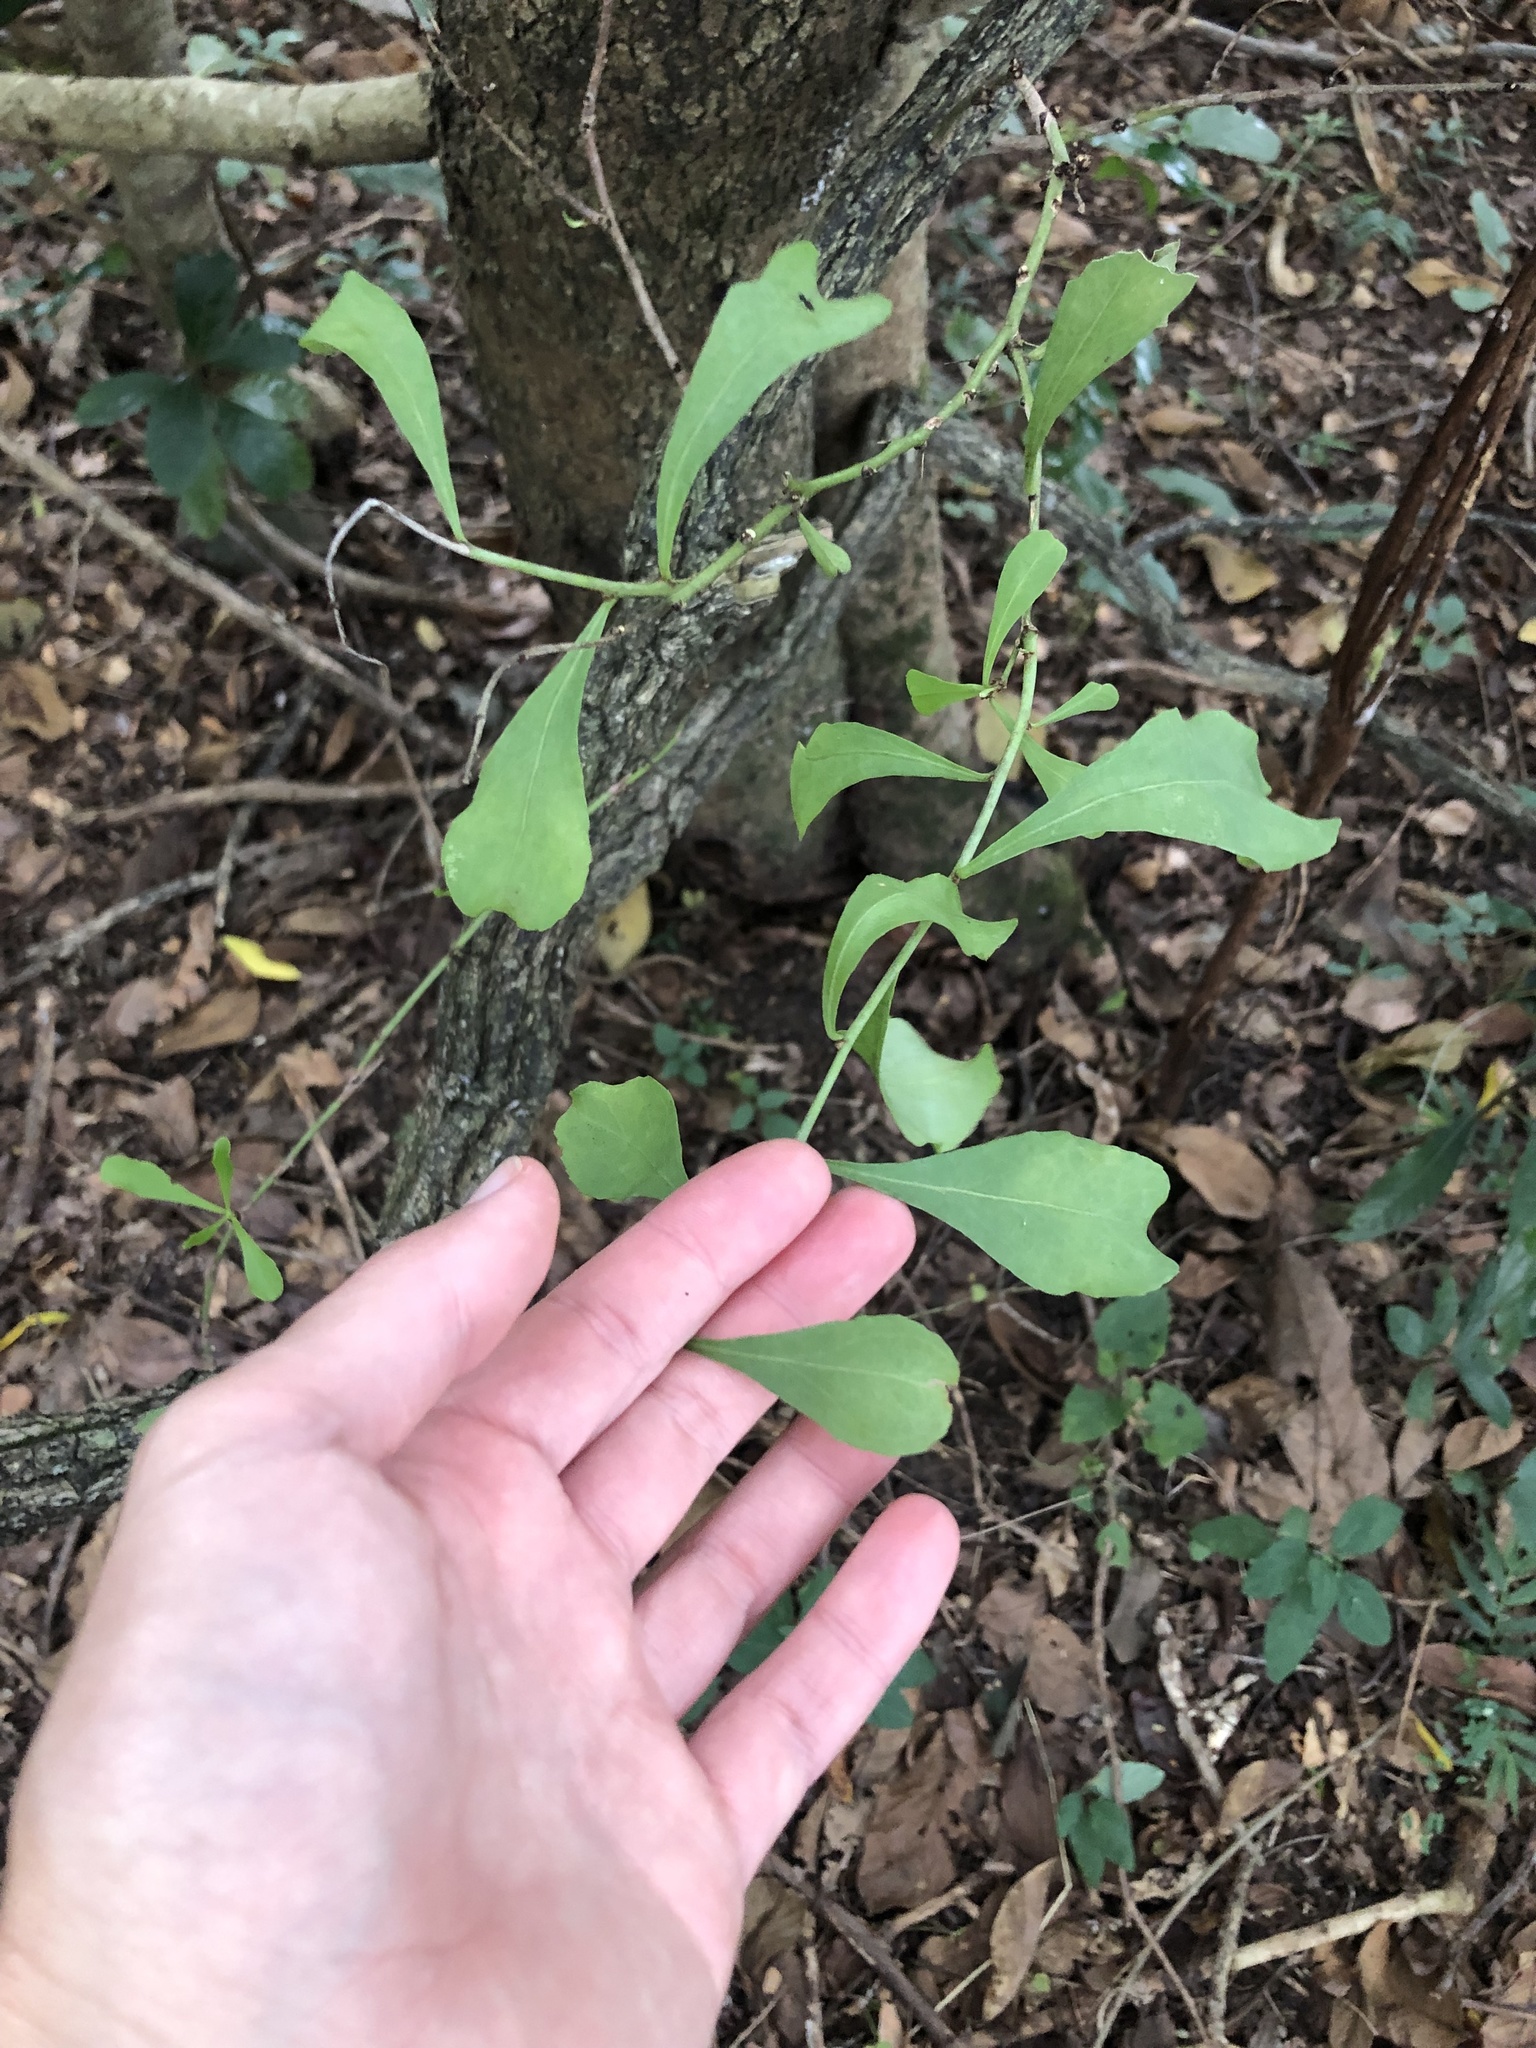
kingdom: Plantae
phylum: Tracheophyta
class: Magnoliopsida
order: Celastrales
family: Celastraceae
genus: Gymnosporia
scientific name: Gymnosporia glaucophylla
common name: Blue spike-thorn
